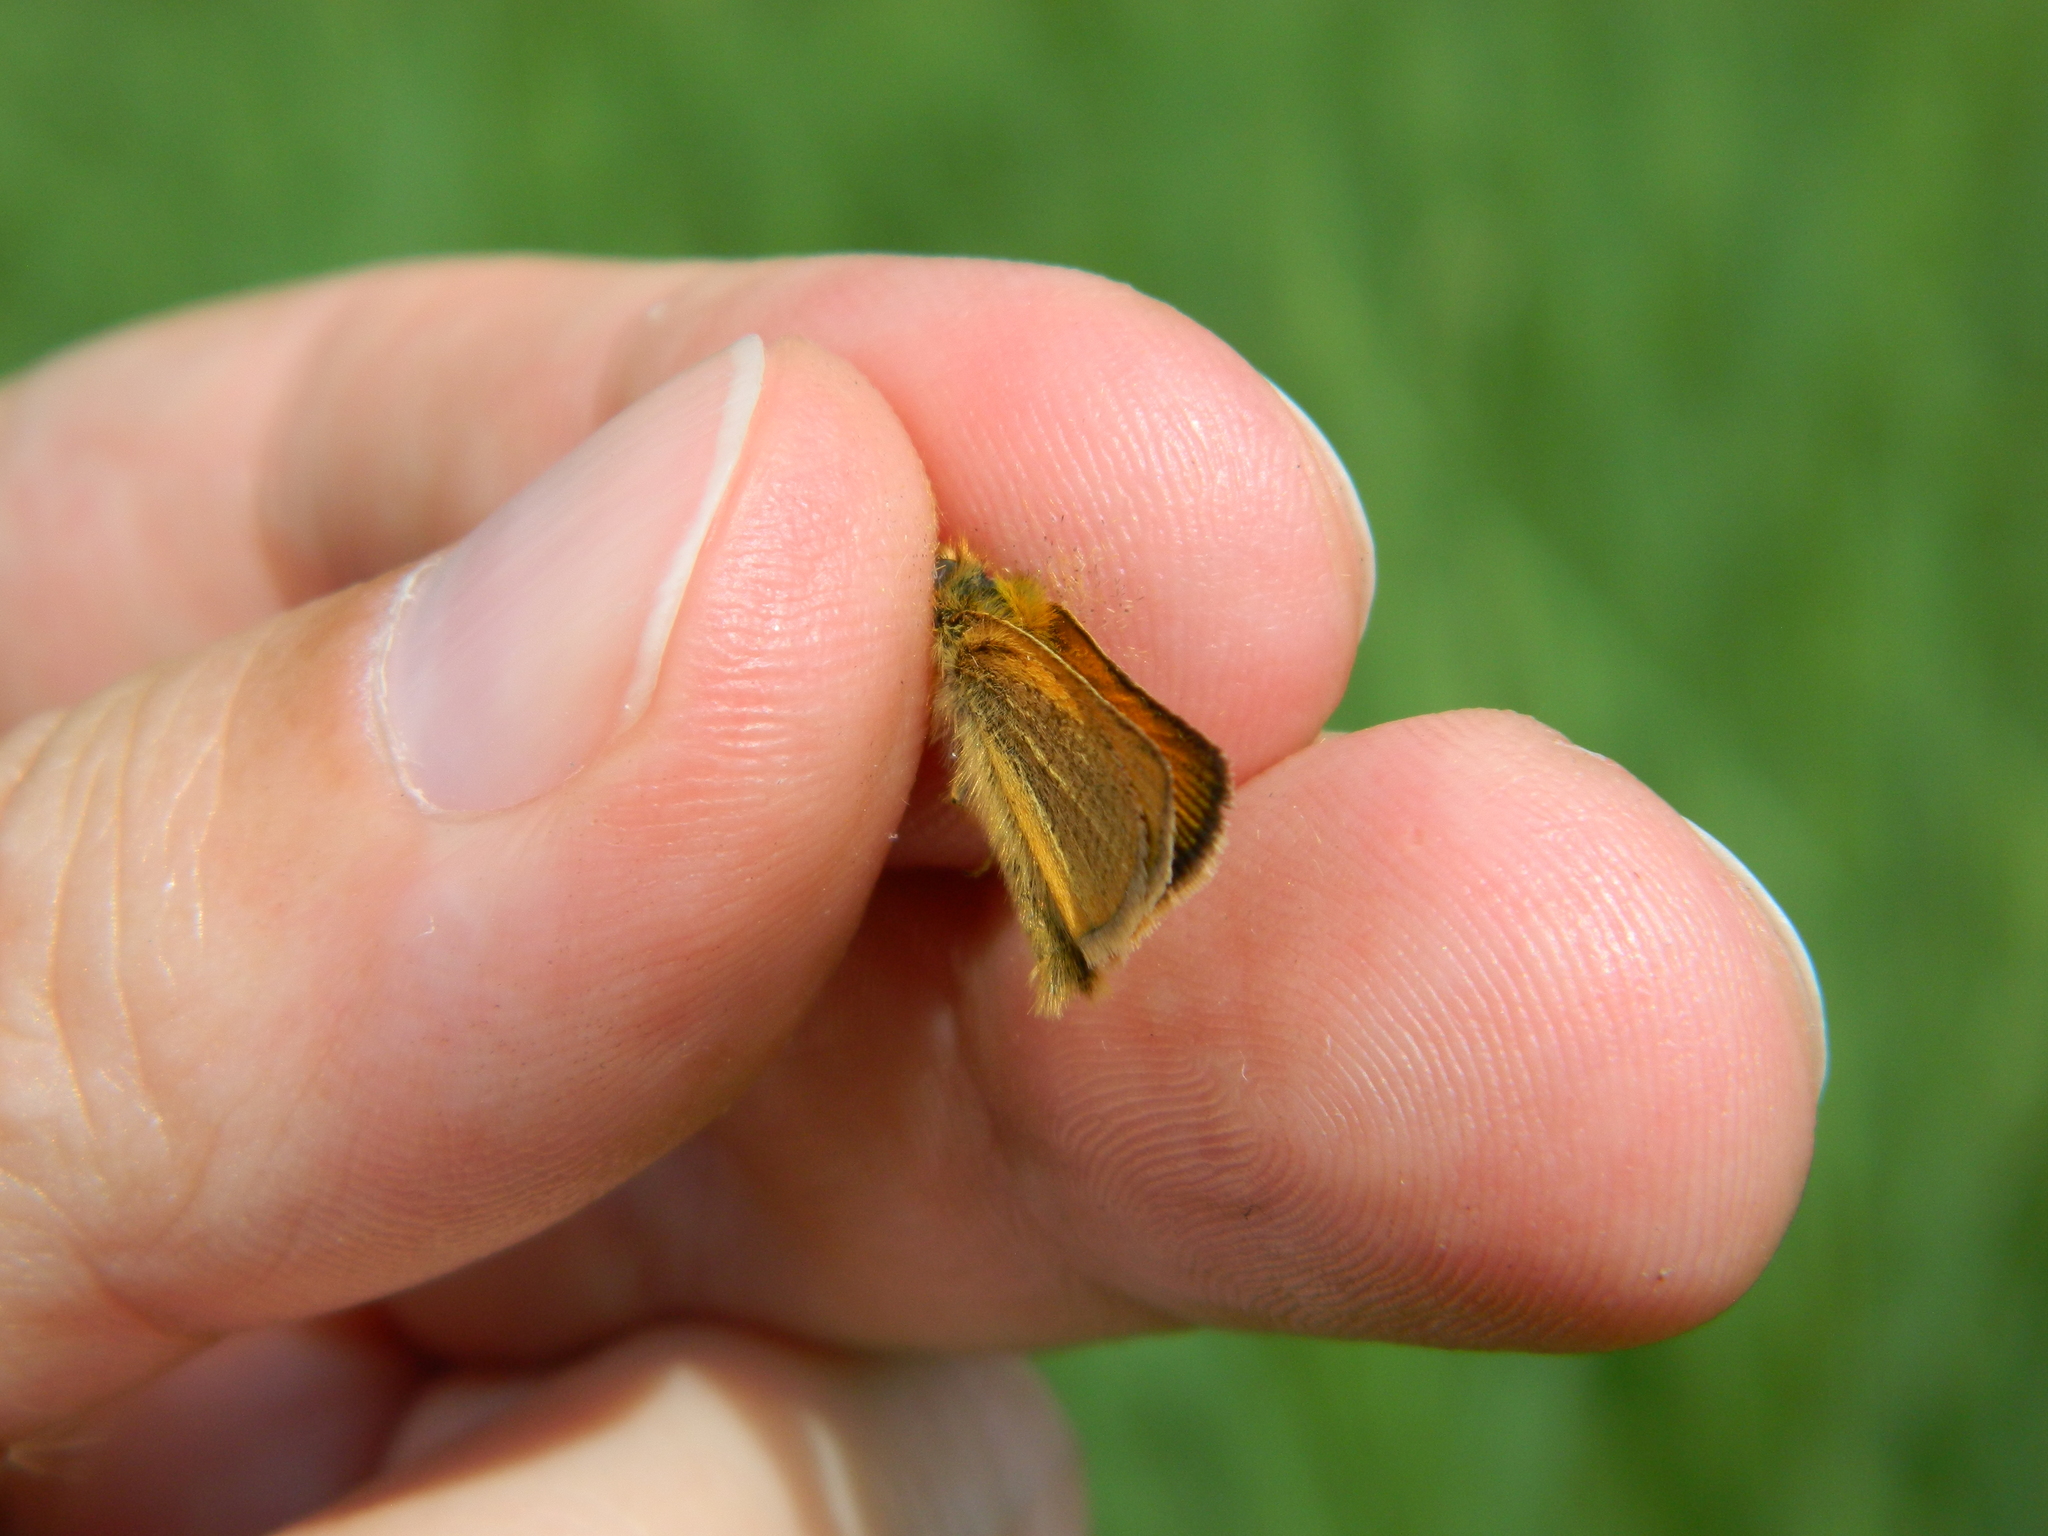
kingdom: Animalia
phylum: Arthropoda
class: Insecta
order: Lepidoptera
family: Hesperiidae
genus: Thymelicus
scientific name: Thymelicus lineola
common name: Essex skipper
